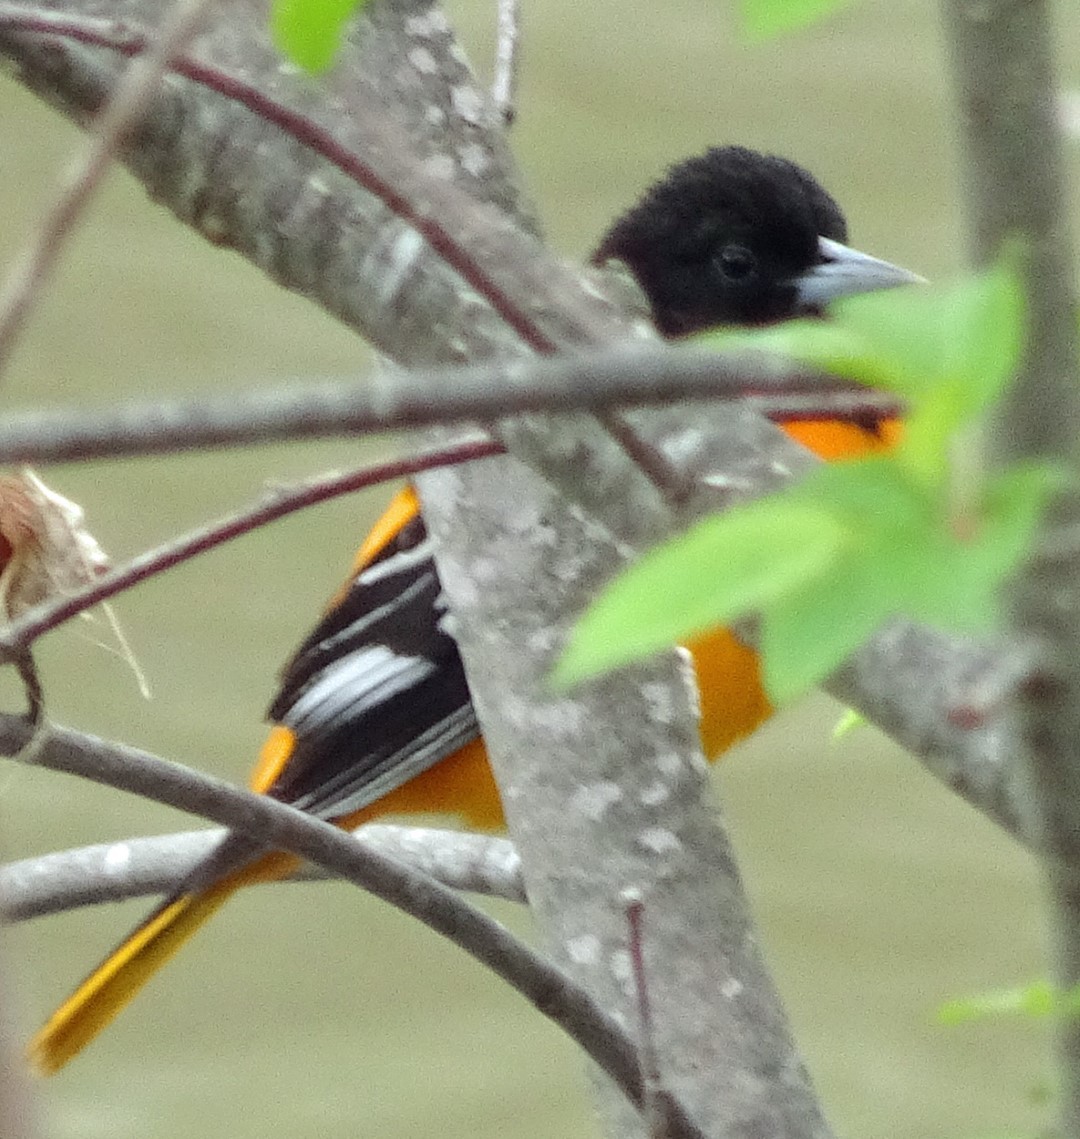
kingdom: Animalia
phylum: Chordata
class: Aves
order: Passeriformes
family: Icteridae
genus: Icterus
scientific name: Icterus galbula
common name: Baltimore oriole
